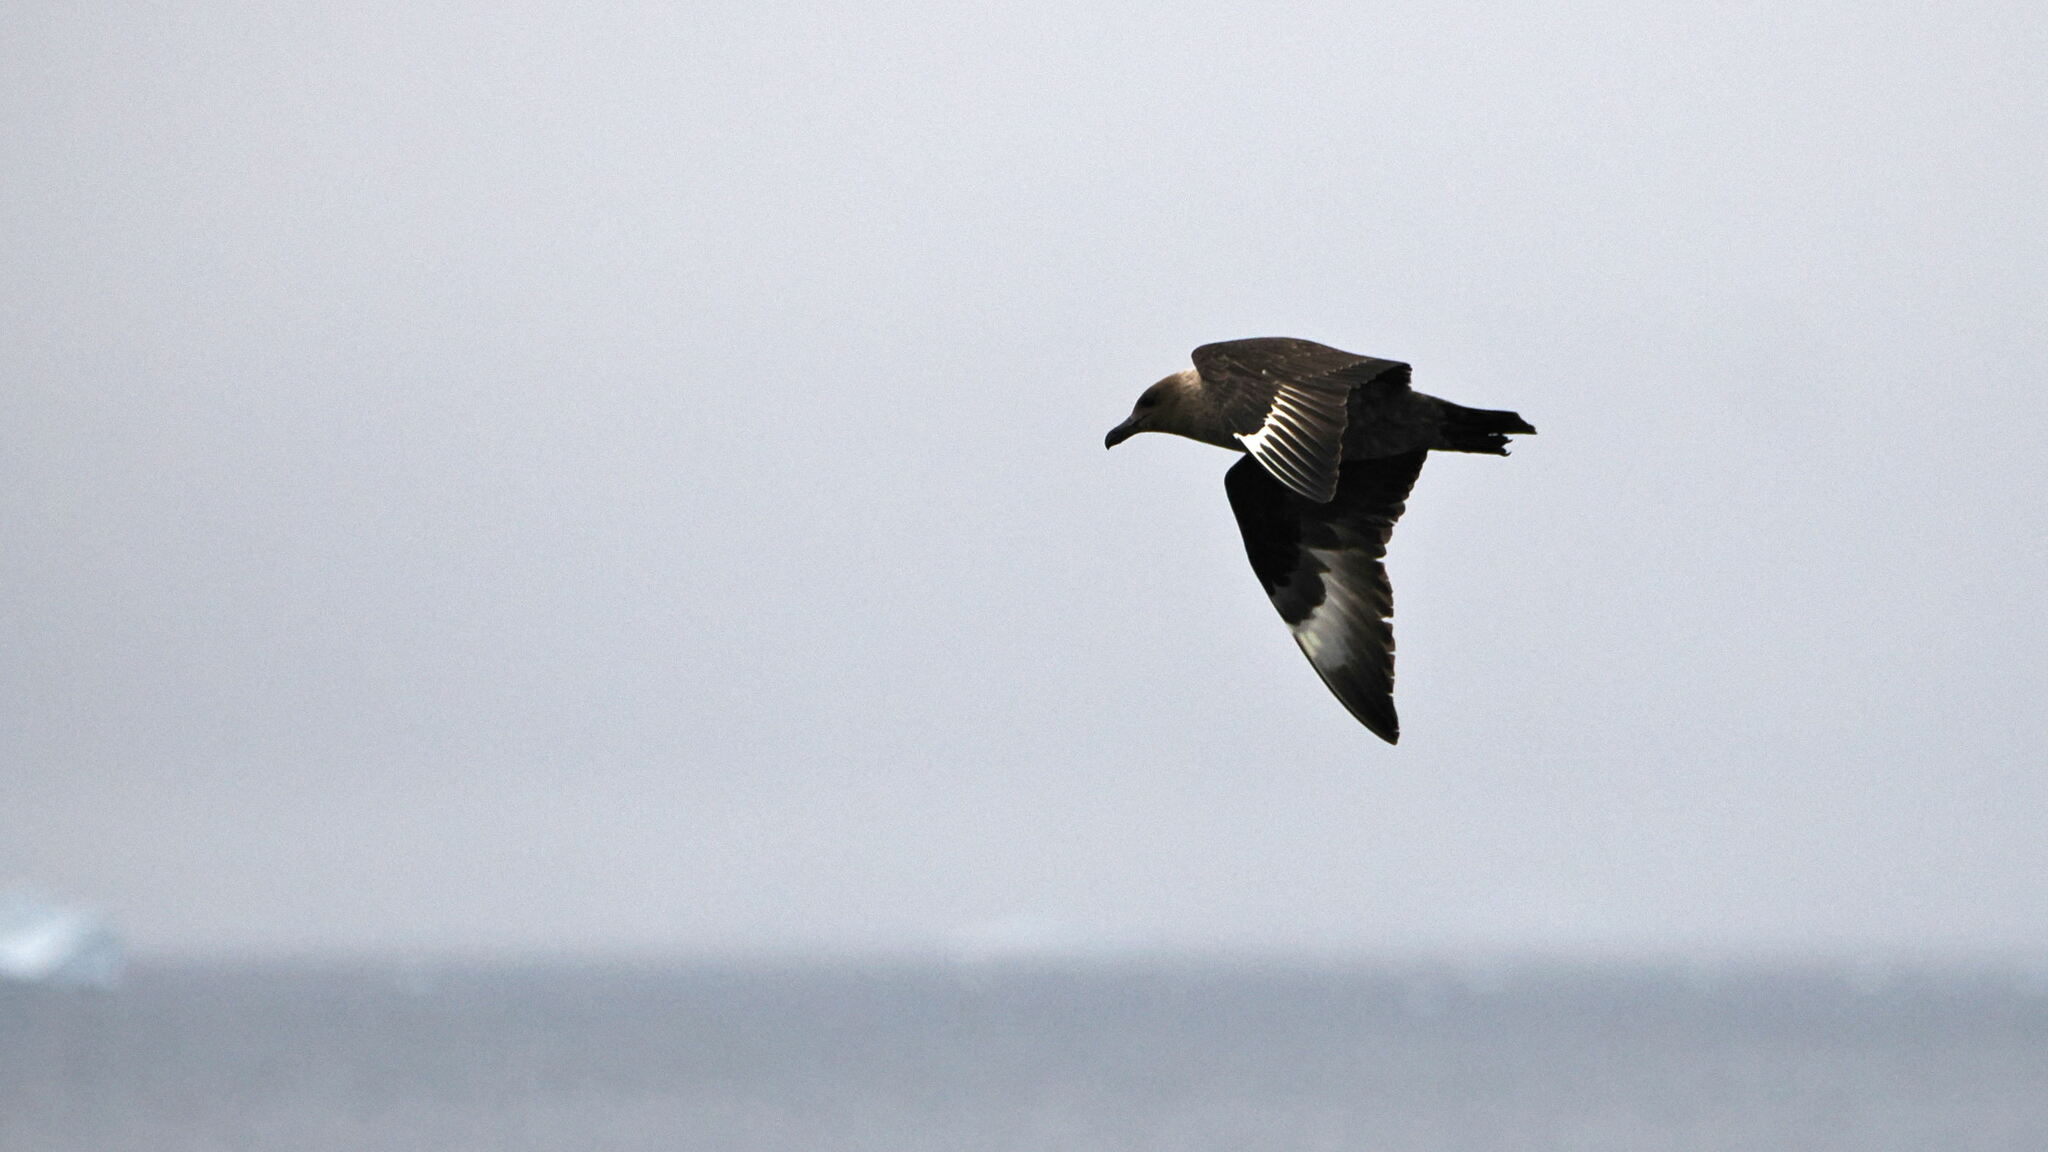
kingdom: Animalia
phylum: Chordata
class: Aves
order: Charadriiformes
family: Stercorariidae
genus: Stercorarius
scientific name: Stercorarius maccormicki
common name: South polar skua
